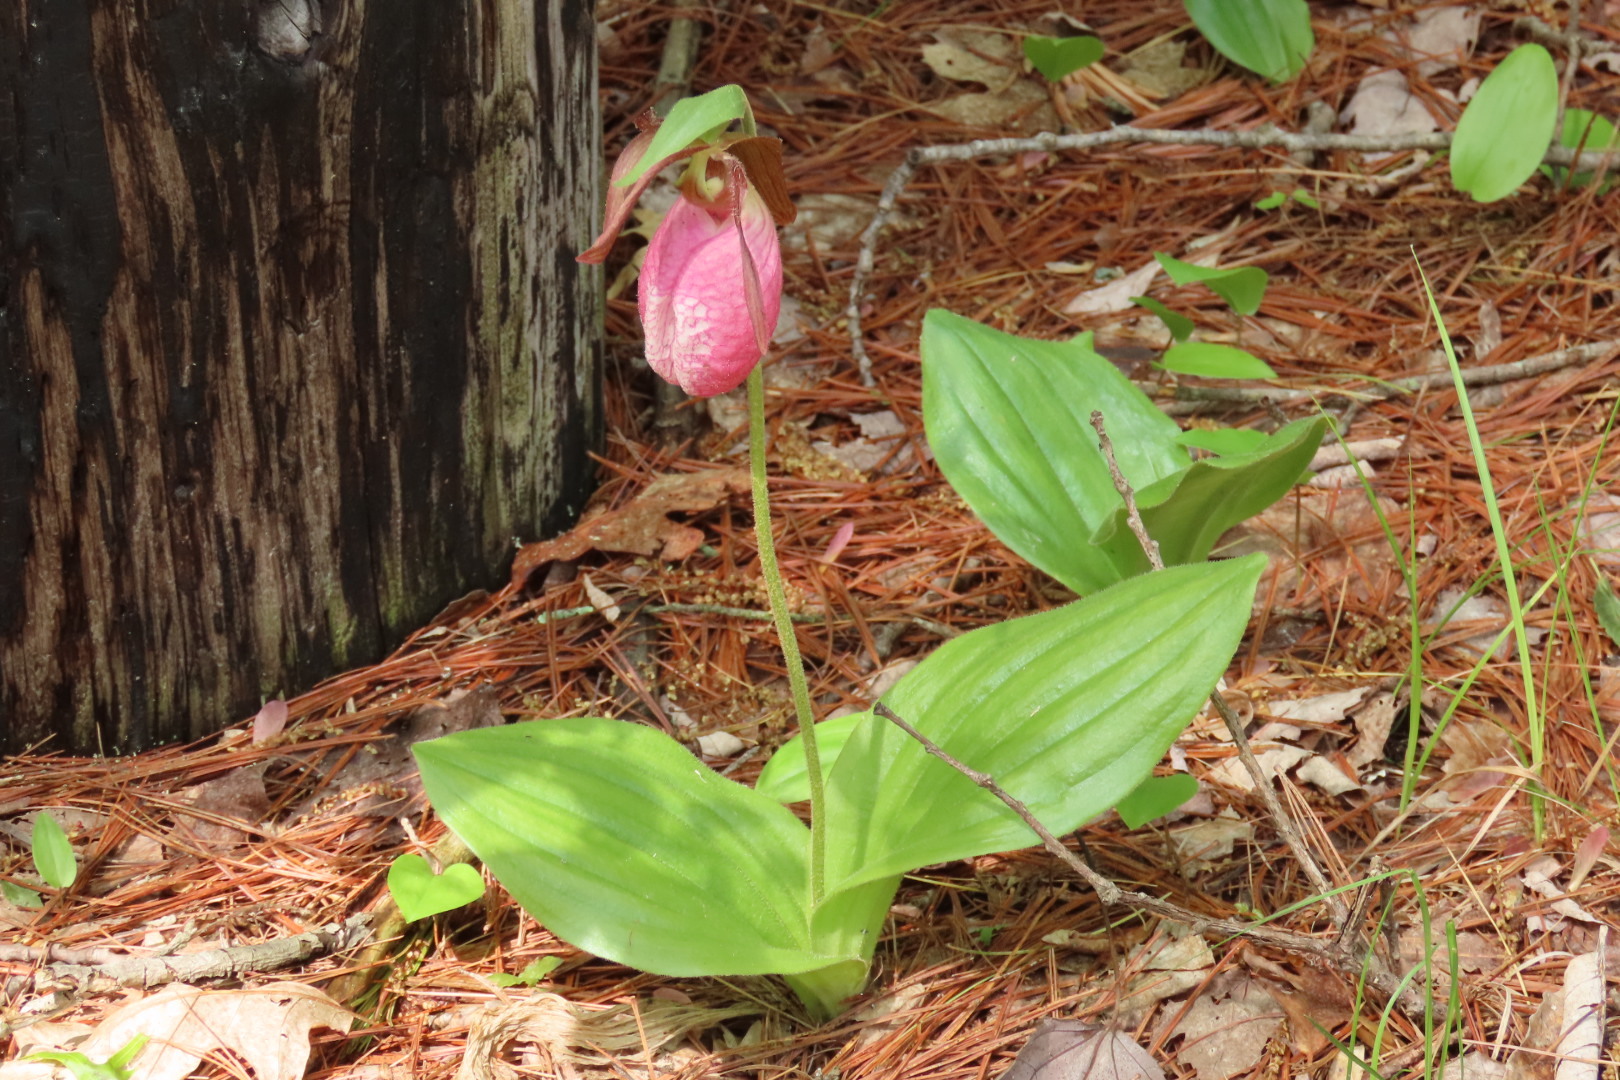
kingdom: Plantae
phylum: Tracheophyta
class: Liliopsida
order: Asparagales
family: Orchidaceae
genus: Cypripedium
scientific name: Cypripedium acaule
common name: Pink lady's-slipper
